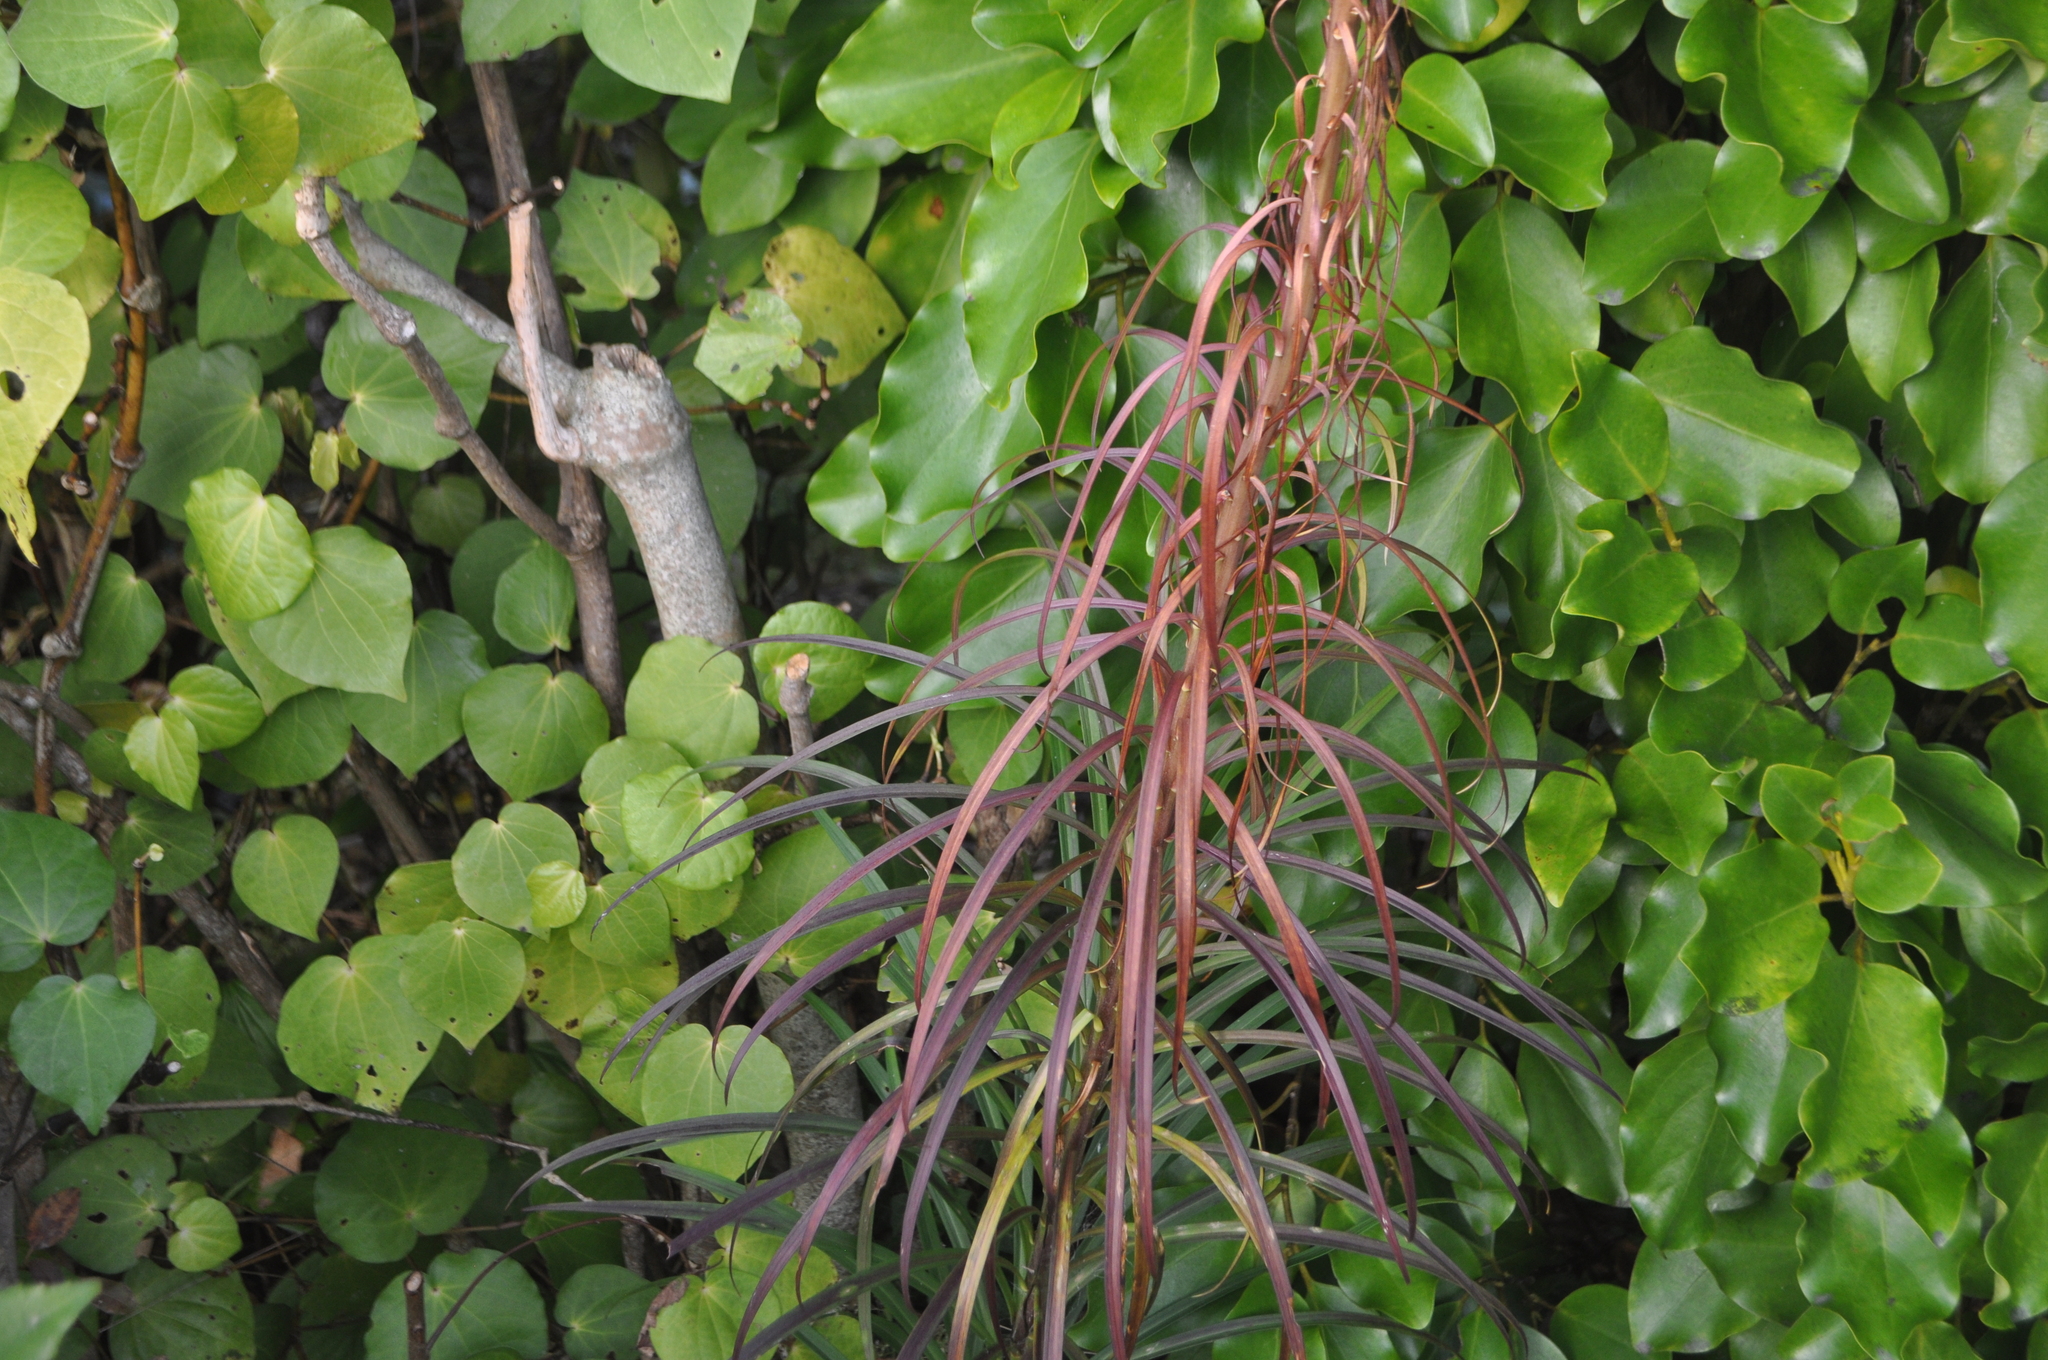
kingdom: Plantae
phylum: Tracheophyta
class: Magnoliopsida
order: Apiales
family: Araliaceae
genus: Pseudopanax
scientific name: Pseudopanax ferox
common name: Fierce lancewood
